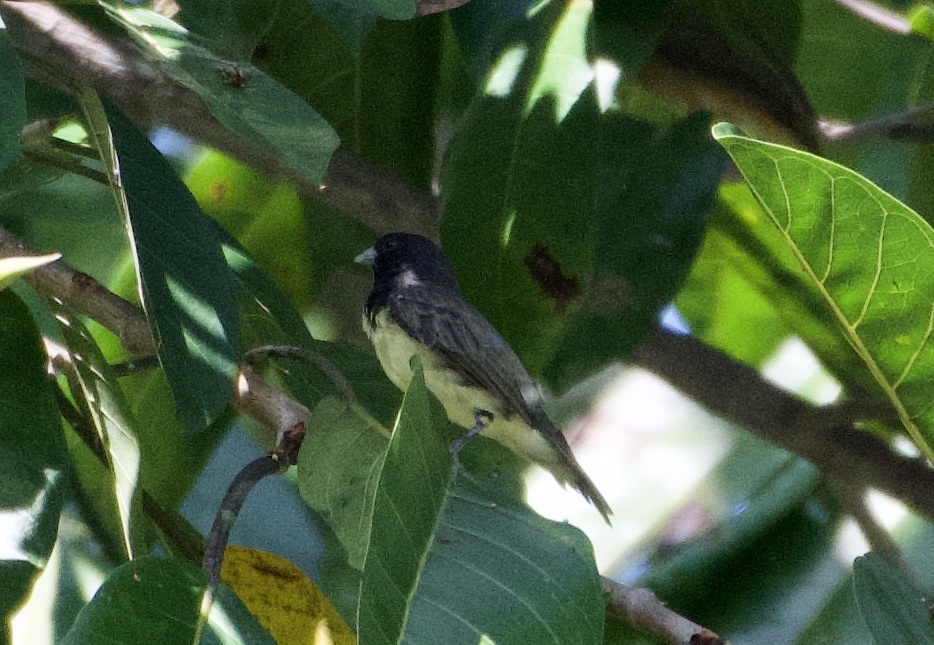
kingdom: Animalia
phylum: Chordata
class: Aves
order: Passeriformes
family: Thraupidae
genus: Sporophila
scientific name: Sporophila nigricollis
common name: Yellow-bellied seedeater
